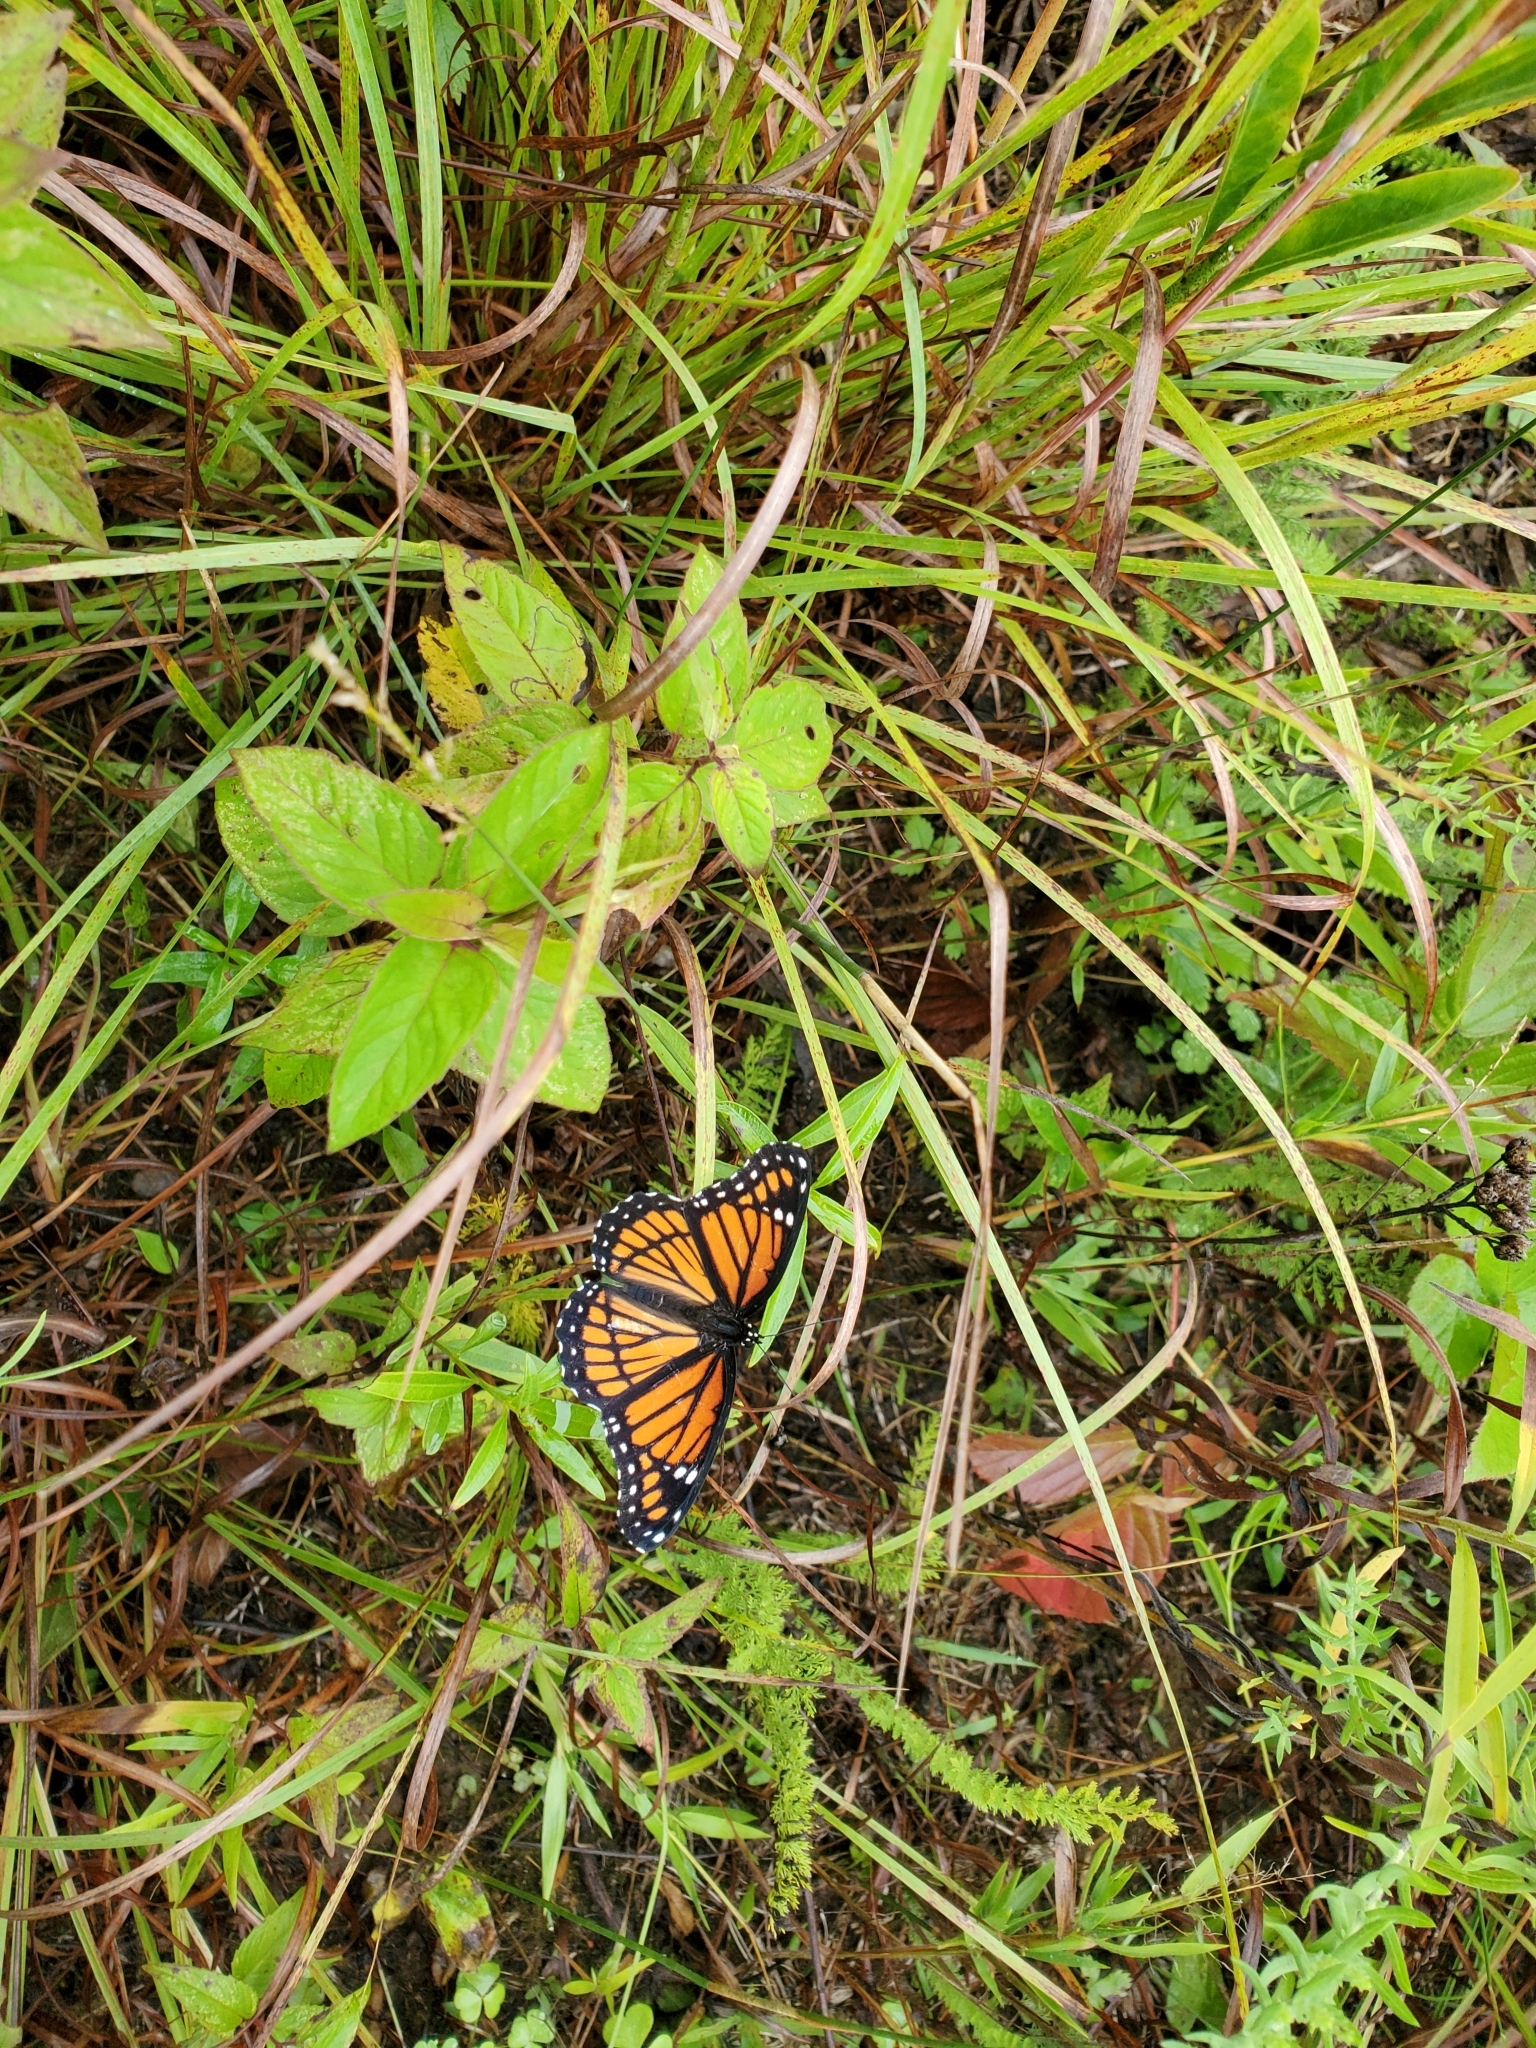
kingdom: Animalia
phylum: Arthropoda
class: Insecta
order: Lepidoptera
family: Nymphalidae
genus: Limenitis
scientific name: Limenitis archippus
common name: Viceroy
